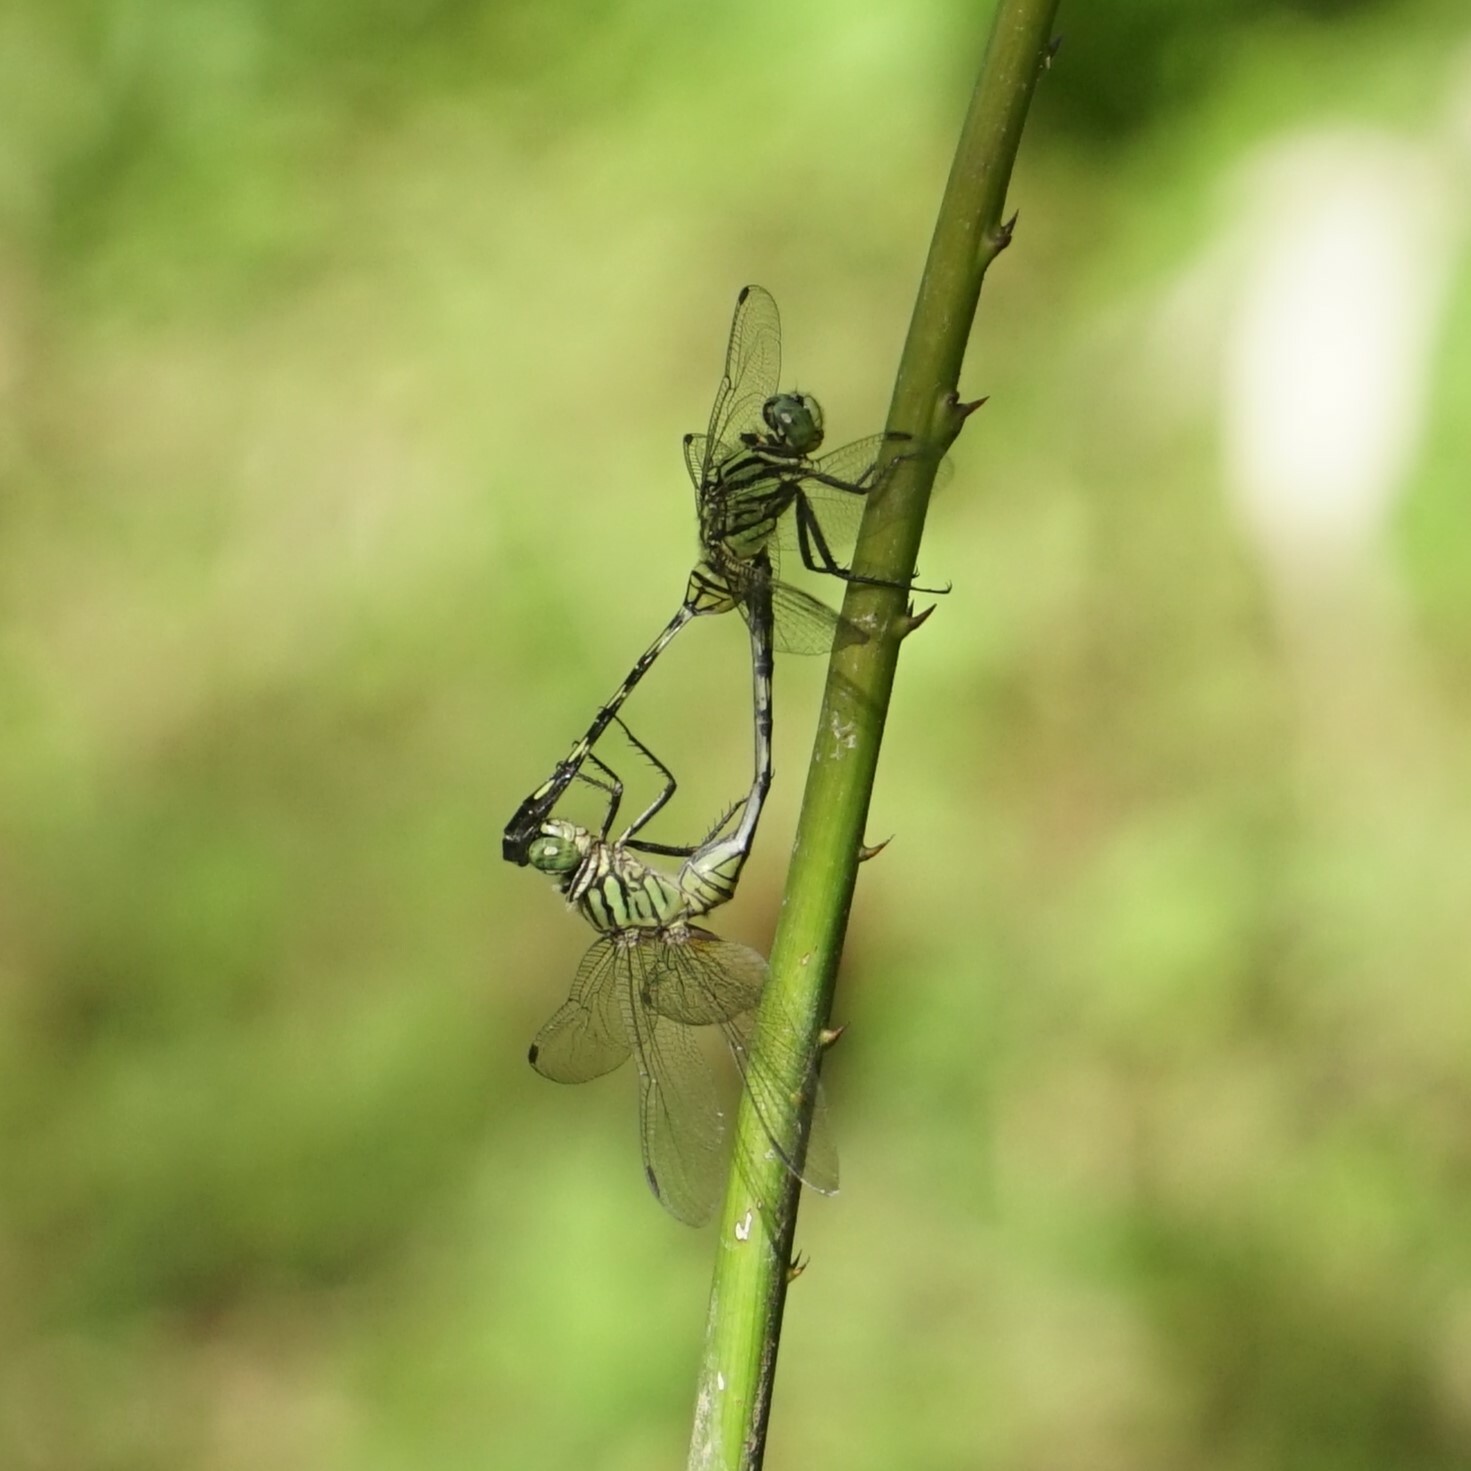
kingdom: Animalia
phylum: Arthropoda
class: Insecta
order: Odonata
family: Libellulidae
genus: Orthetrum
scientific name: Orthetrum serapia
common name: Green skimmer
